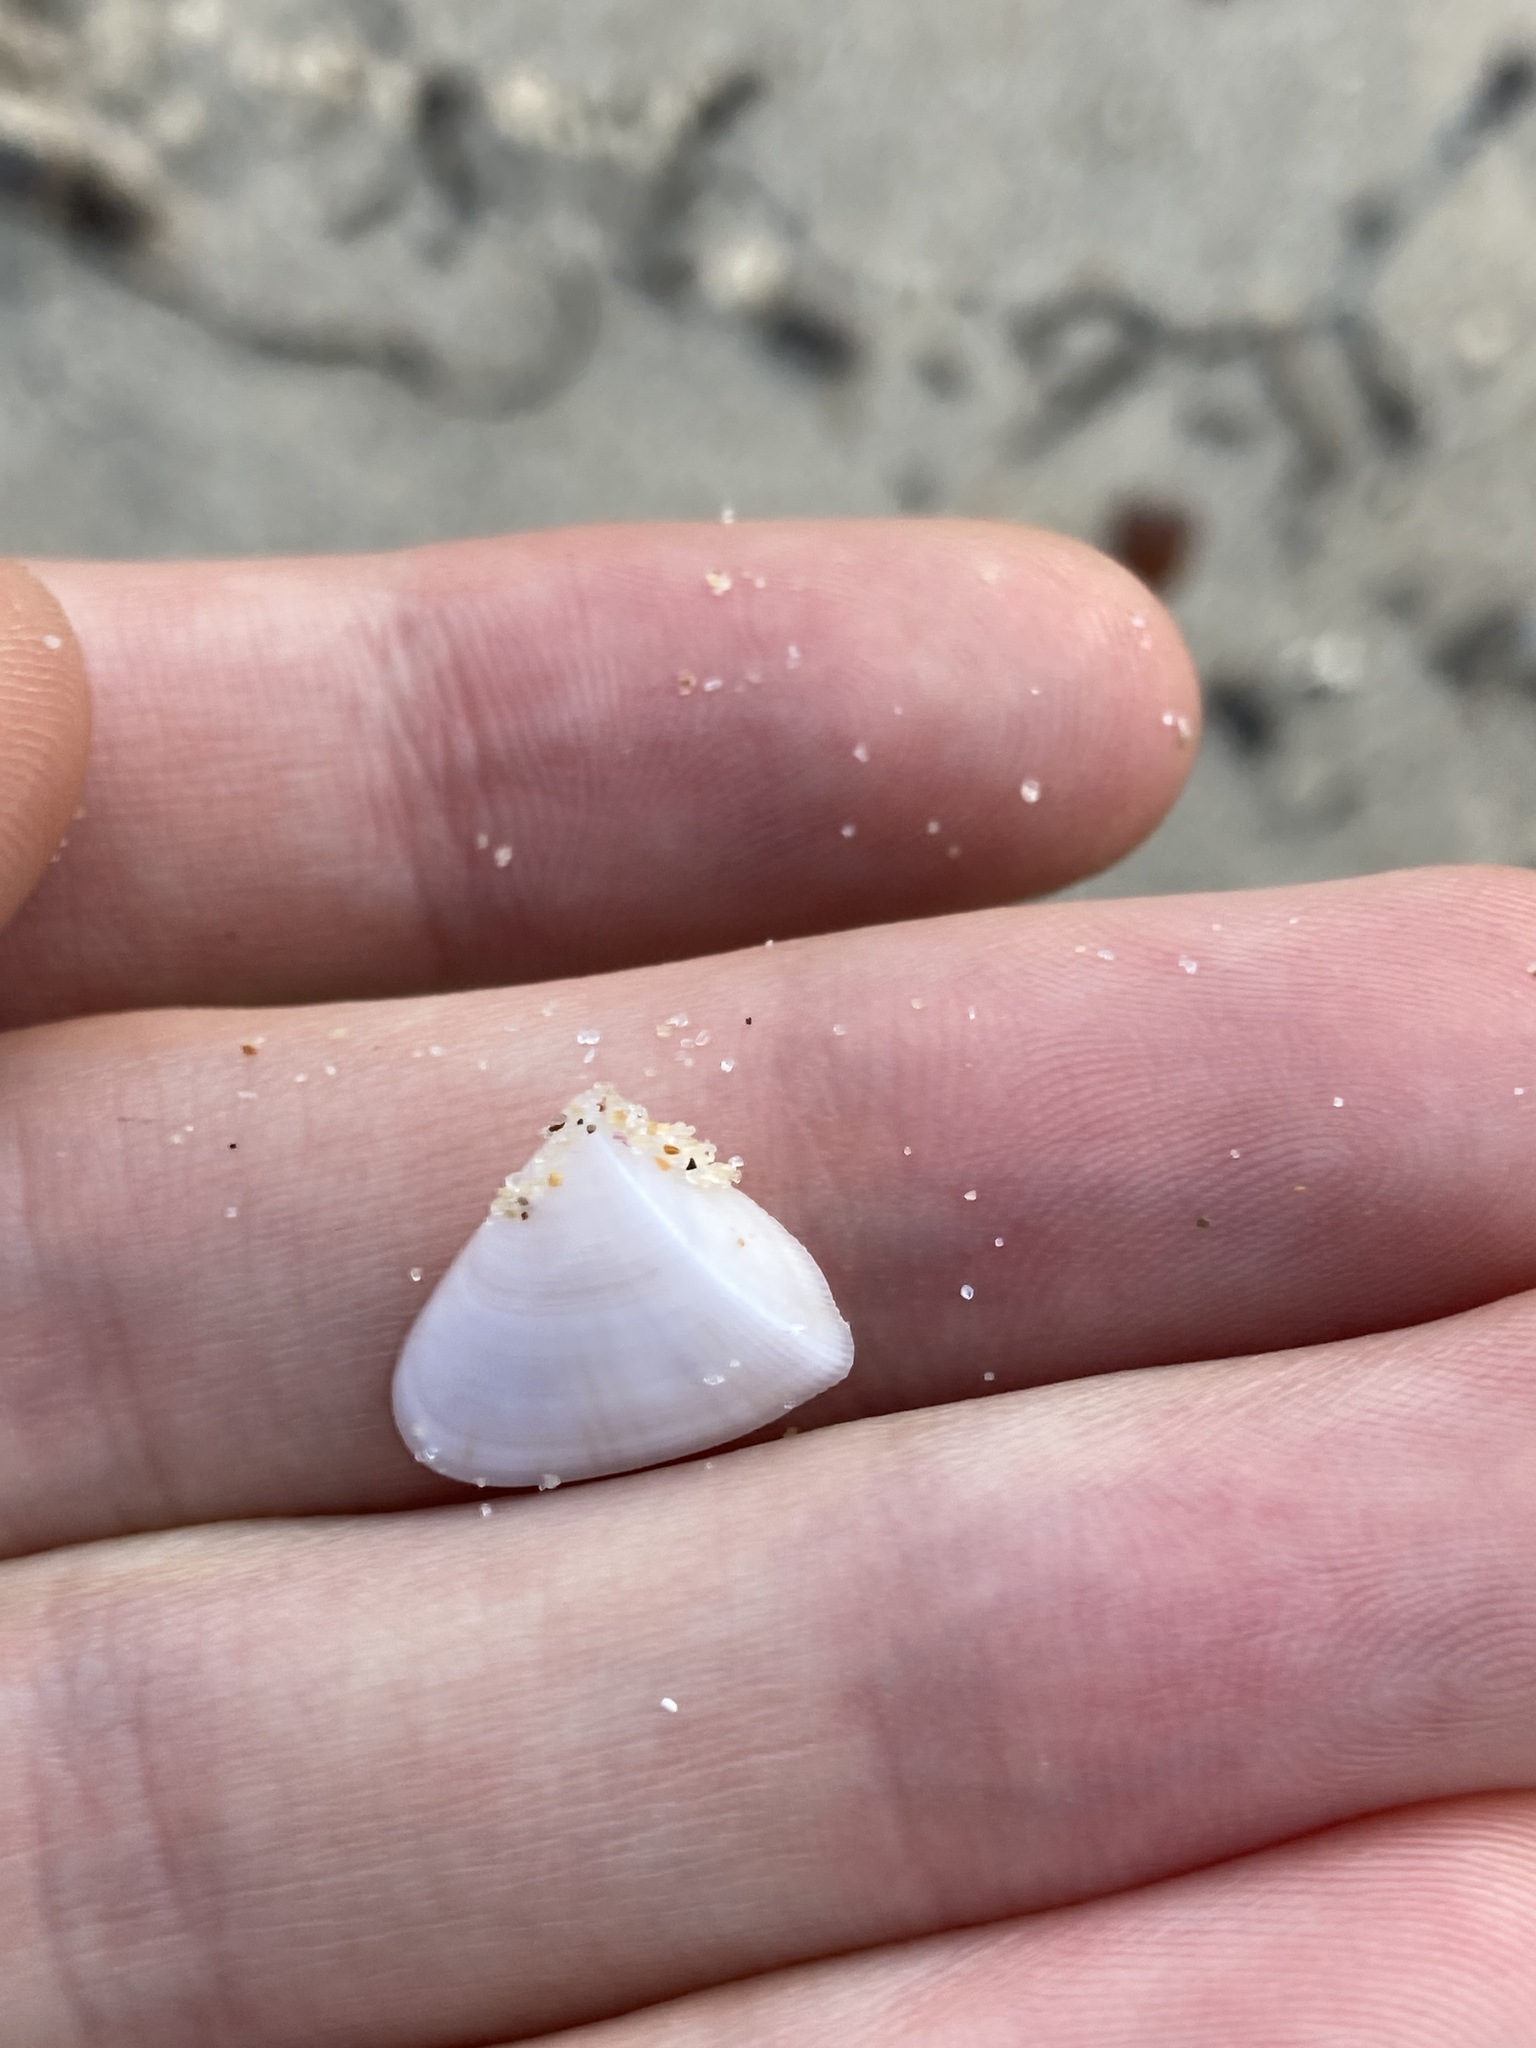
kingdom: Animalia
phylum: Mollusca
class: Bivalvia
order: Cardiida
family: Donacidae
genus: Donax
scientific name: Donax brazieri
